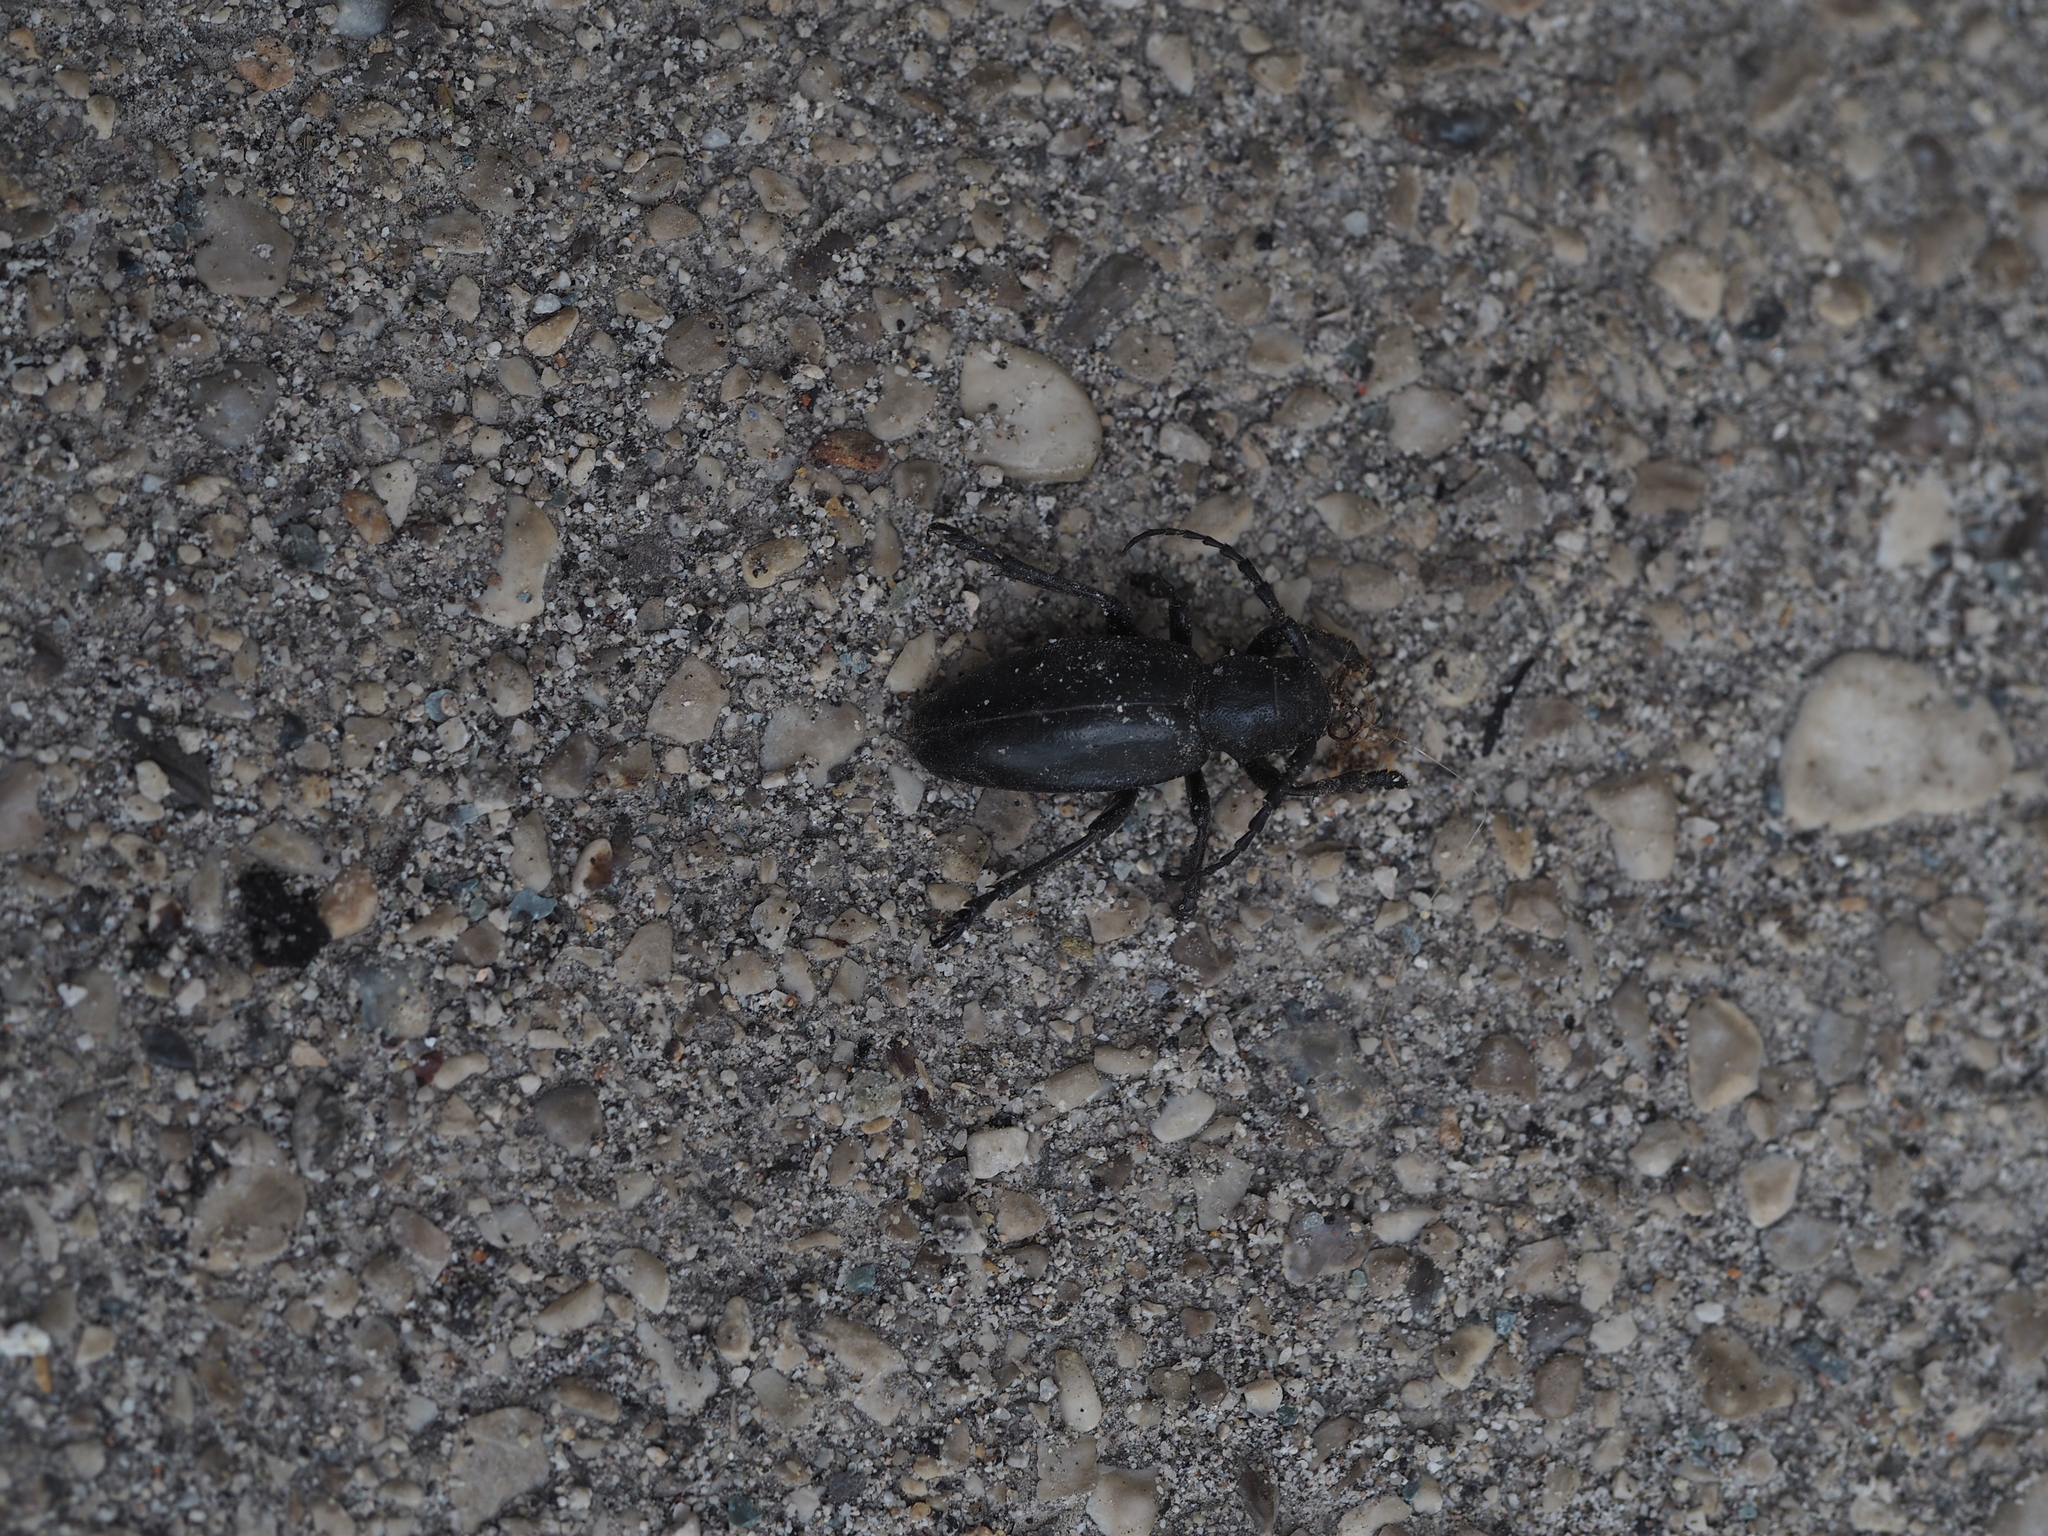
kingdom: Animalia
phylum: Arthropoda
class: Insecta
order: Coleoptera
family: Cerambycidae
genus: Dorcadion
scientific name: Dorcadion aethiops
